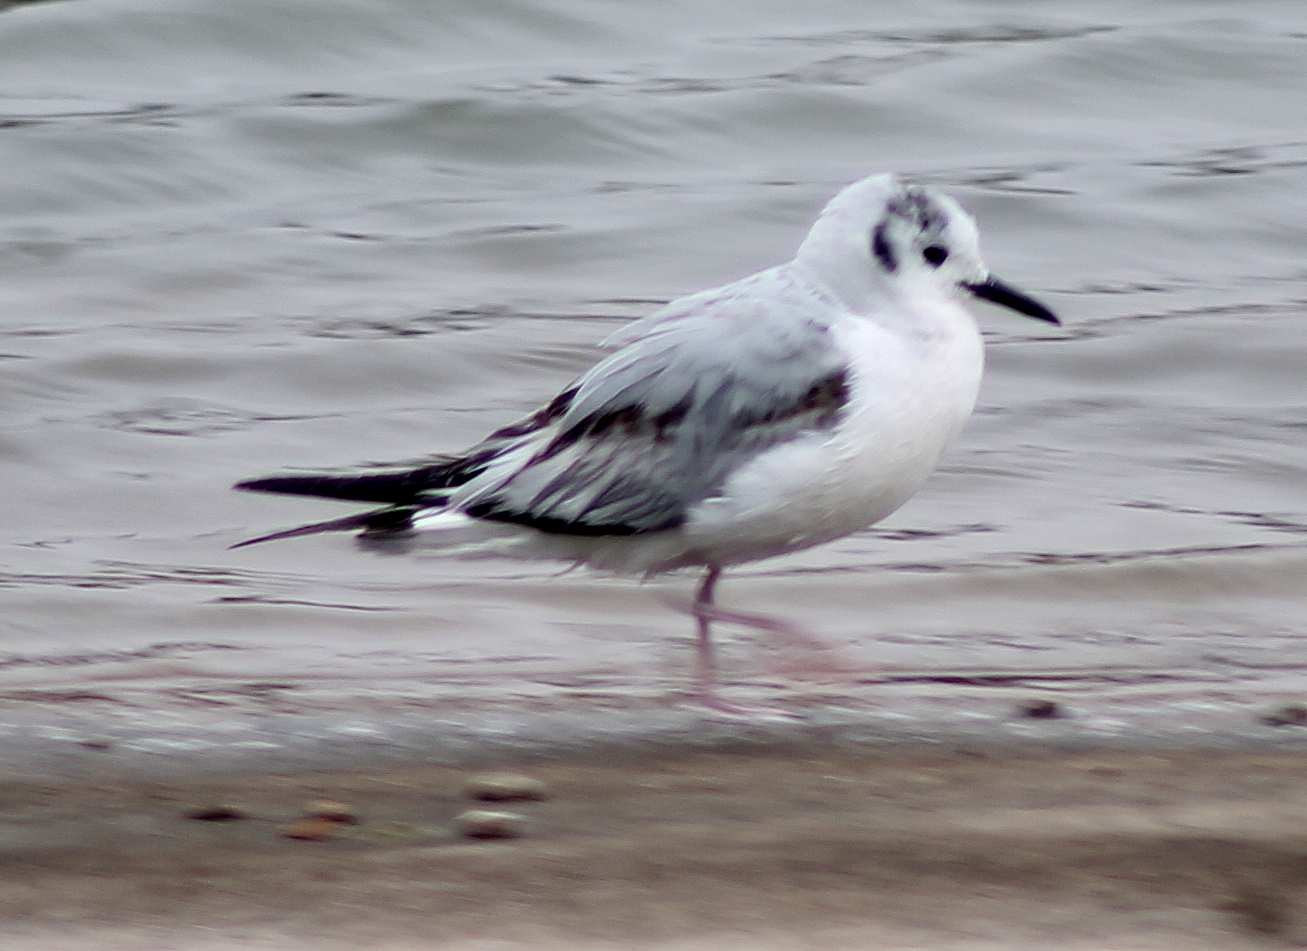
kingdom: Animalia
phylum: Chordata
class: Aves
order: Charadriiformes
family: Laridae
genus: Chroicocephalus
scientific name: Chroicocephalus philadelphia
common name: Bonaparte's gull
